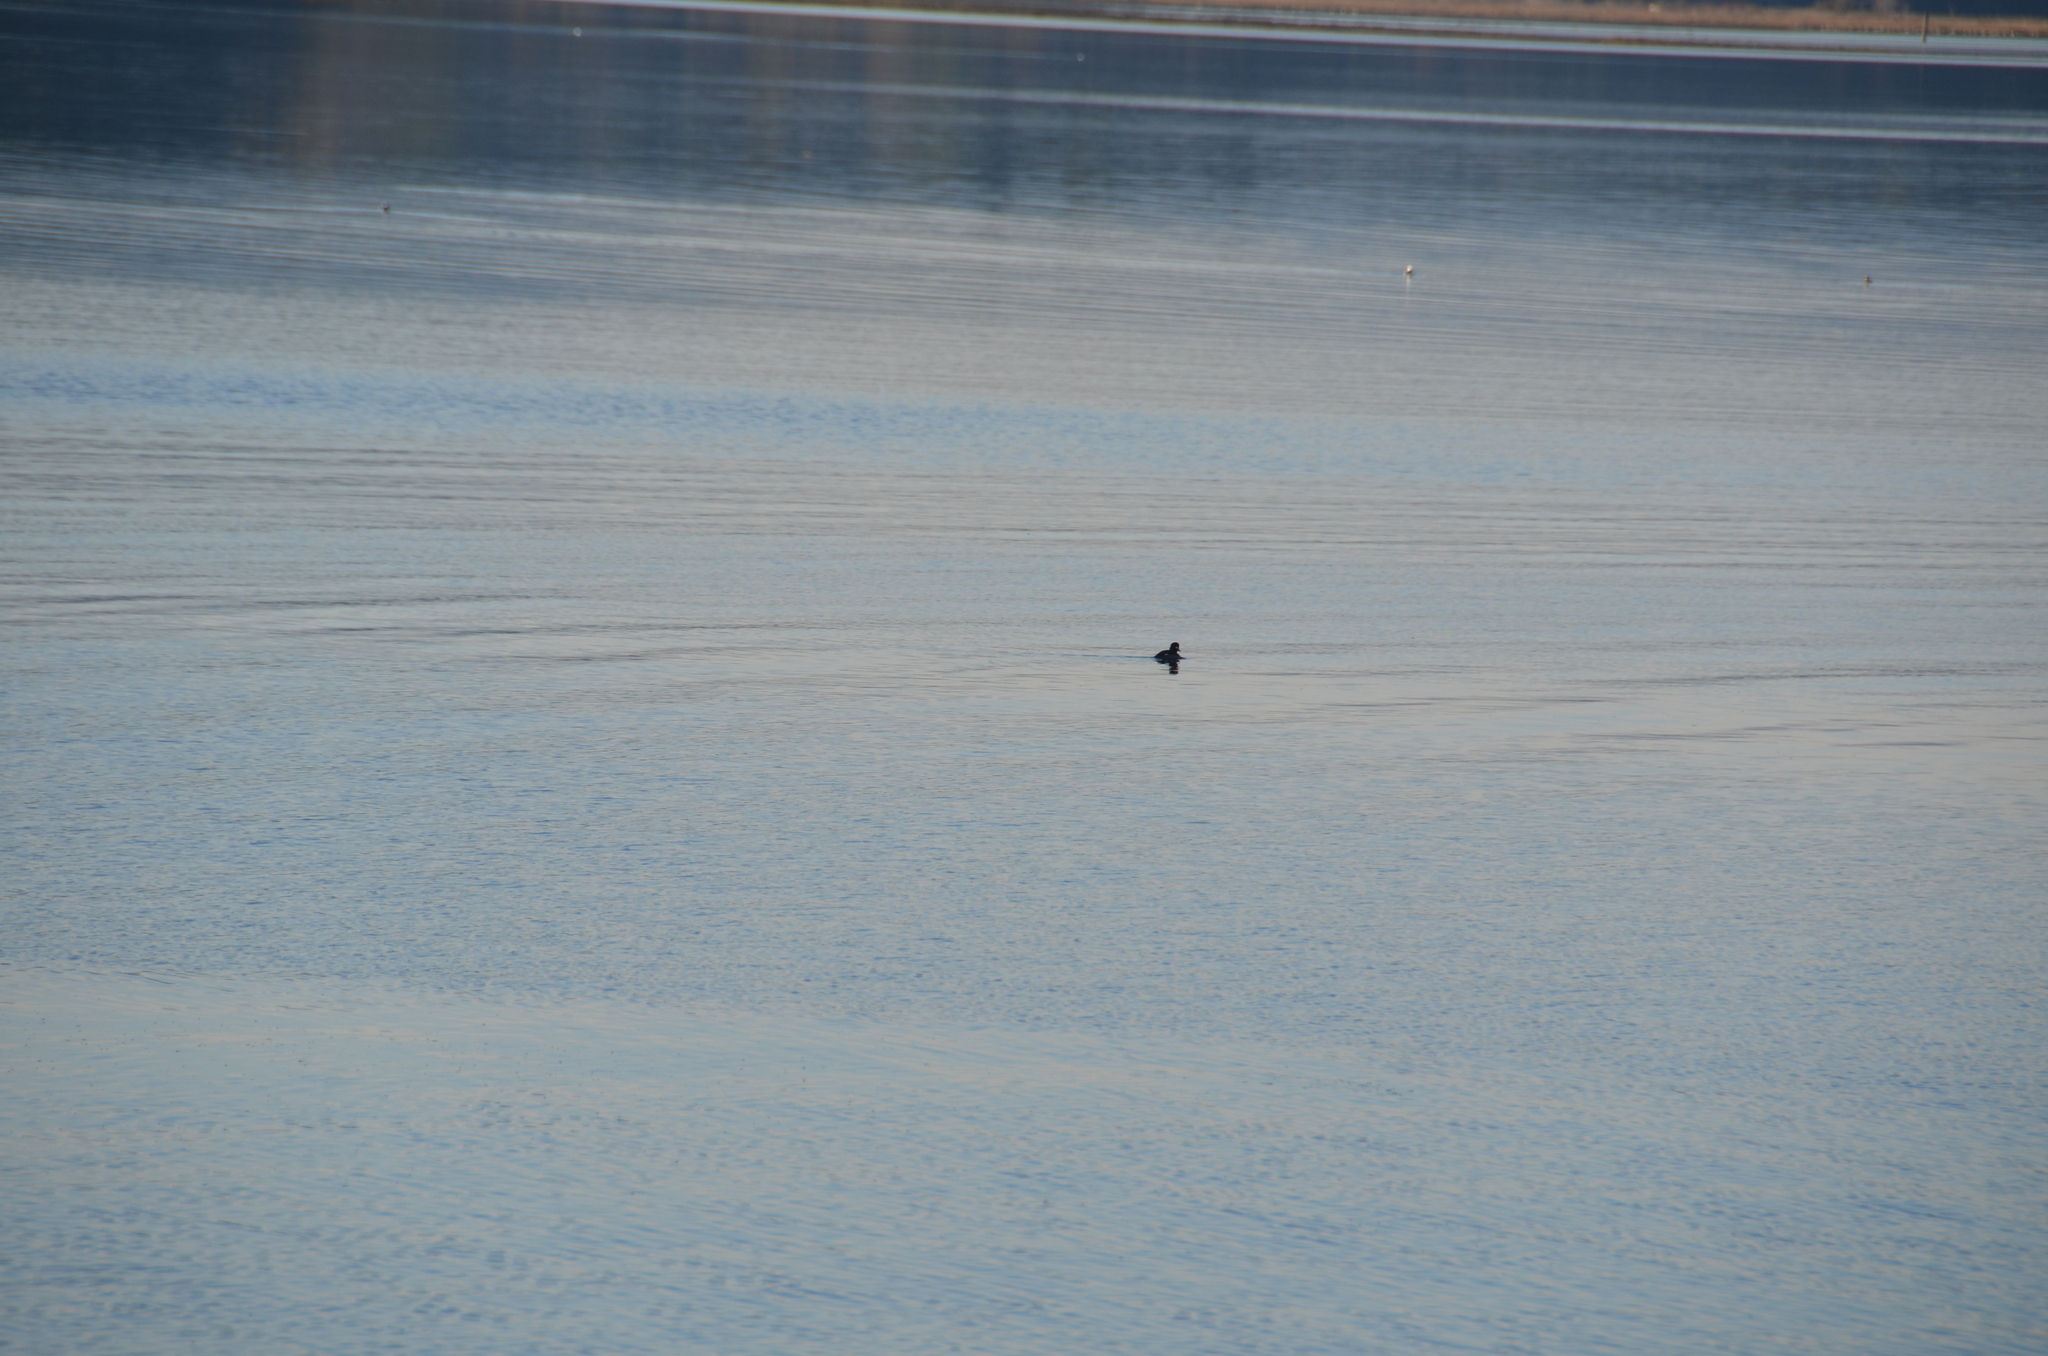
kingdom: Animalia
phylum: Chordata
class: Aves
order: Anseriformes
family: Anatidae
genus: Bucephala
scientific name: Bucephala albeola
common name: Bufflehead
